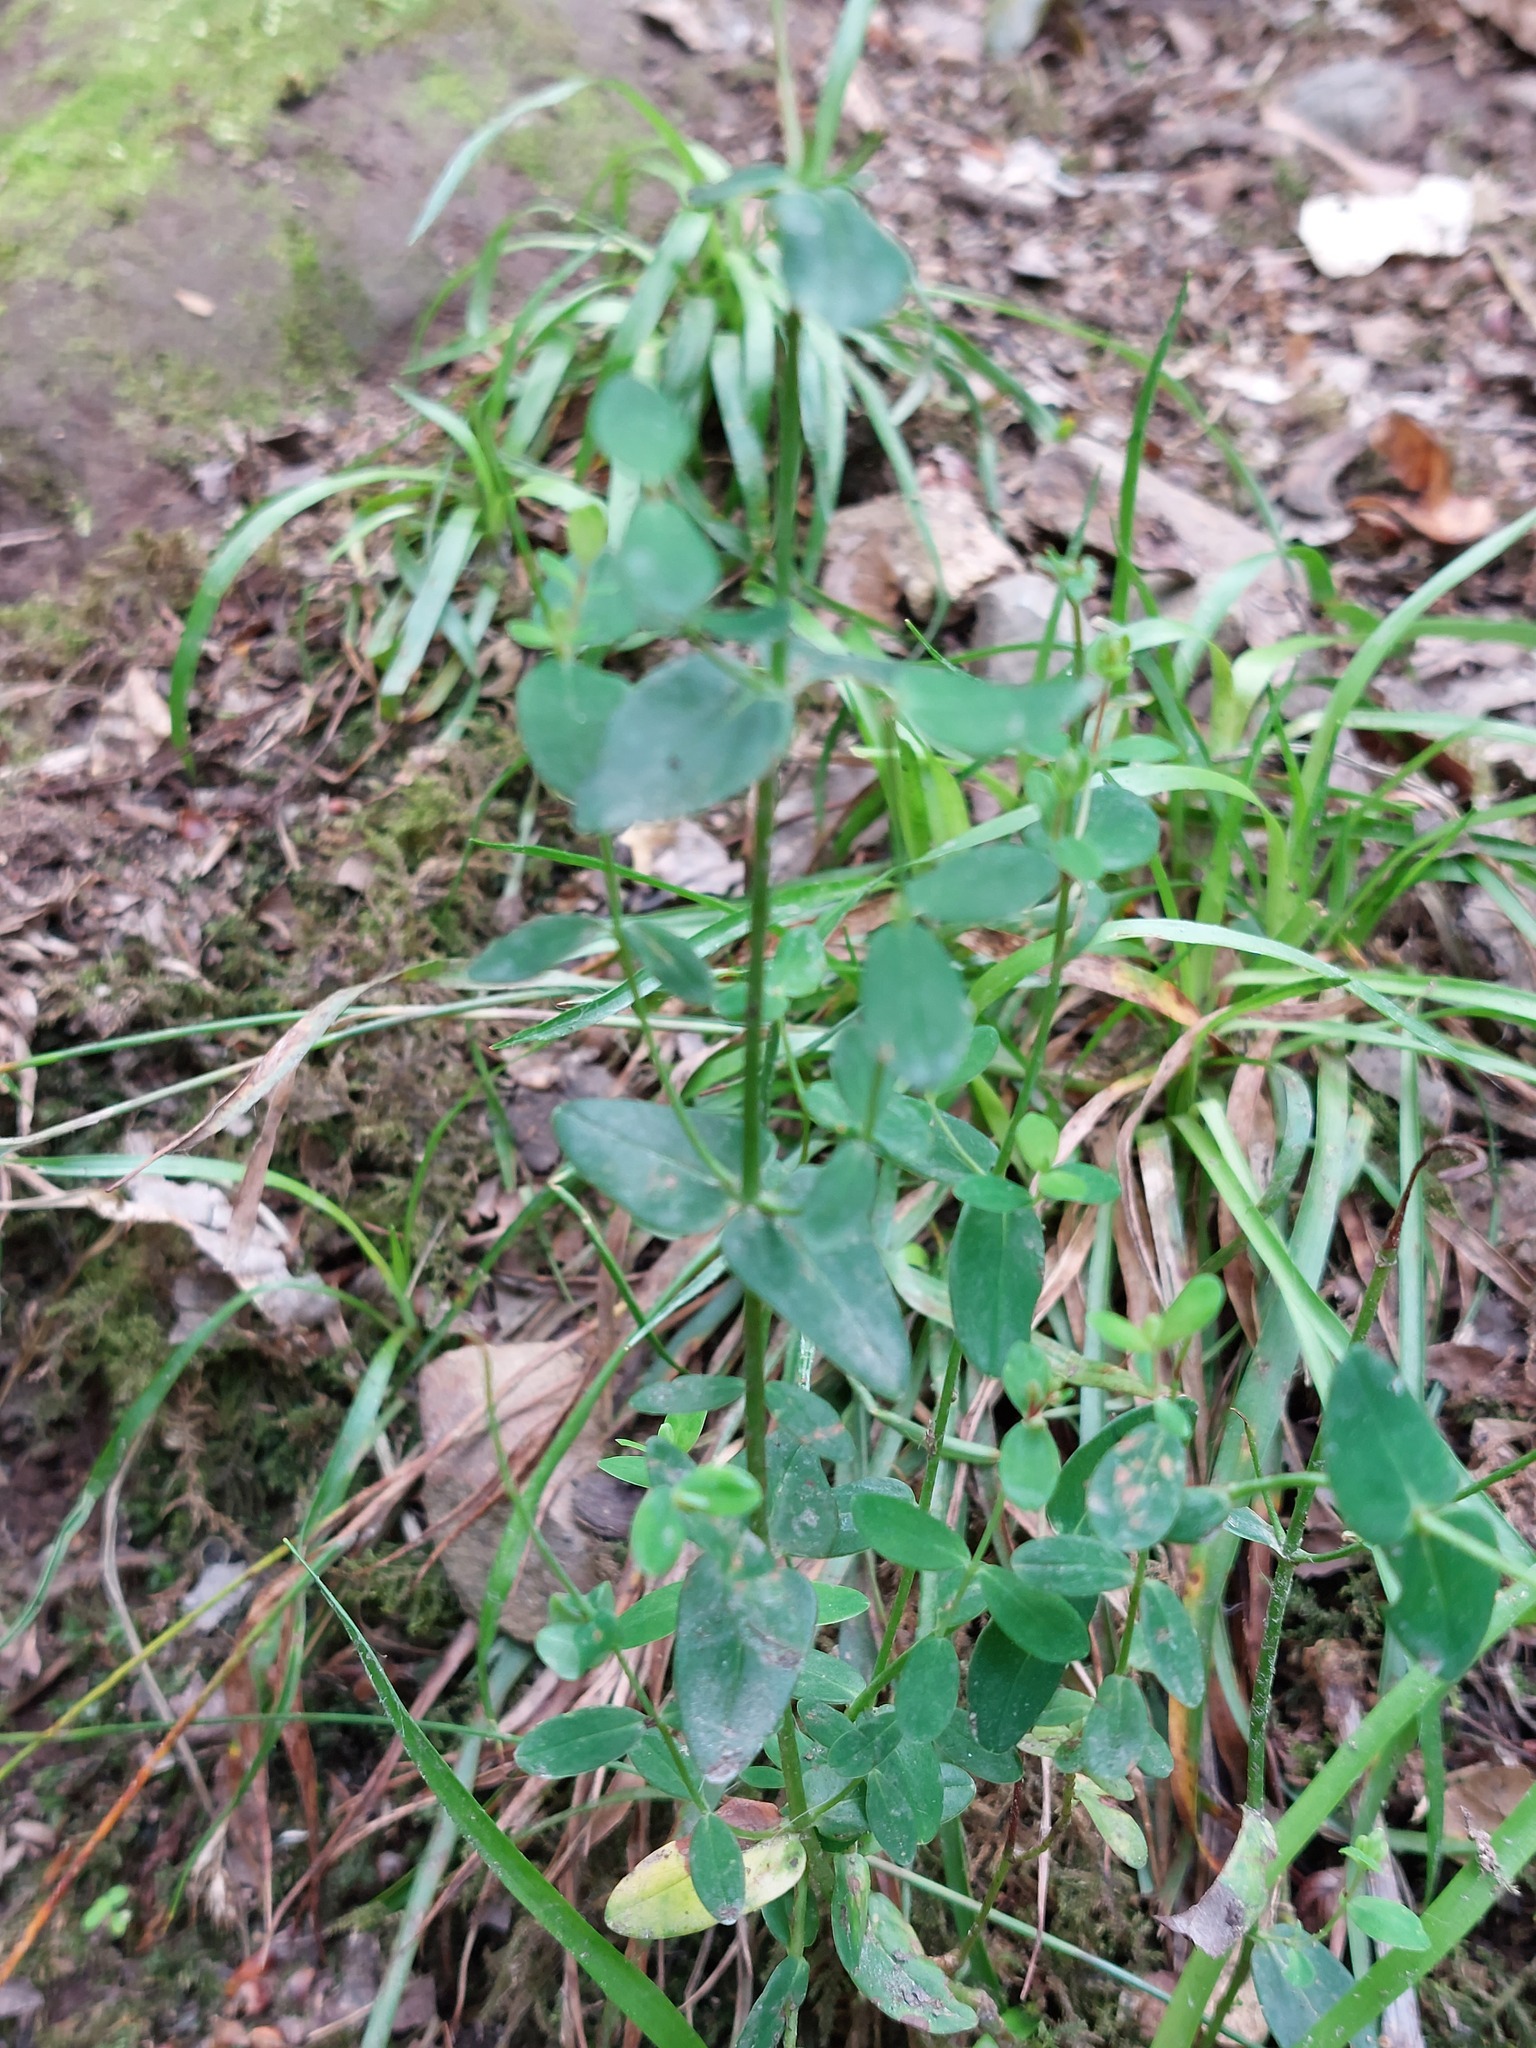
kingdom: Plantae
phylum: Tracheophyta
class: Magnoliopsida
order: Malpighiales
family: Hypericaceae
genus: Hypericum
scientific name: Hypericum pulchrum
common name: Slender st. john's-wort
